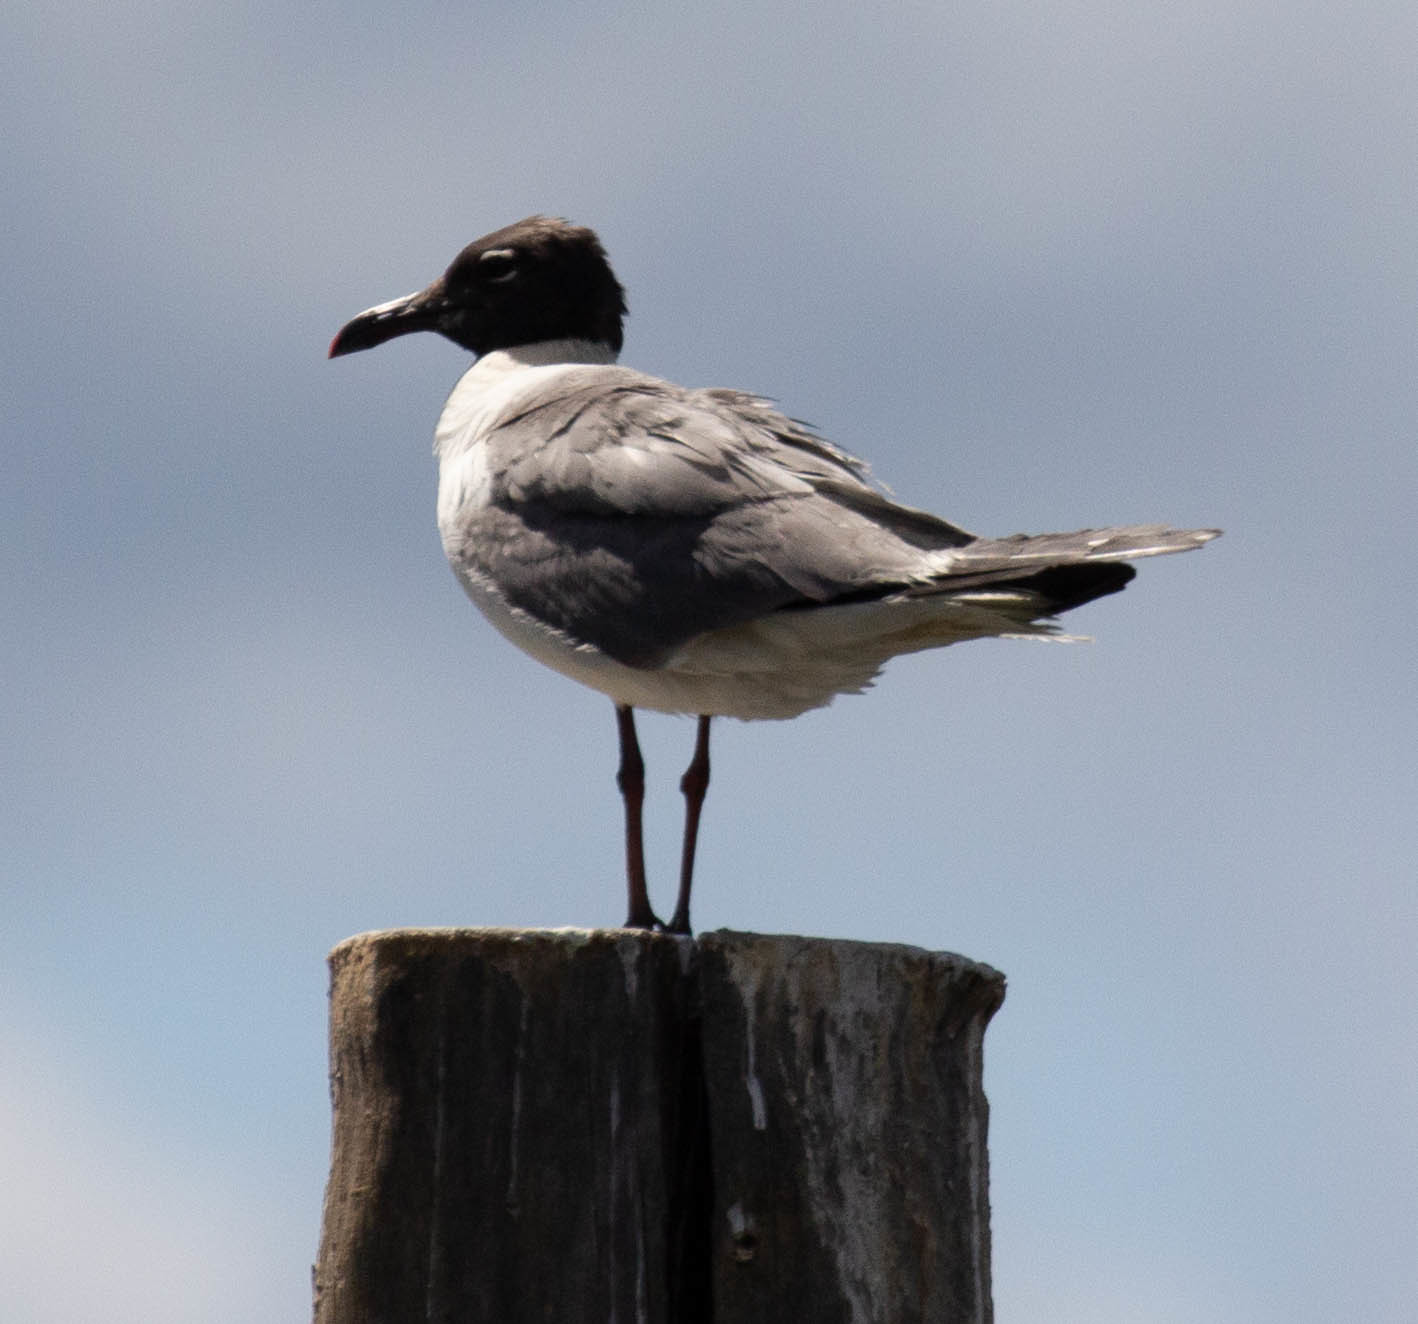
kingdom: Animalia
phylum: Chordata
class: Aves
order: Charadriiformes
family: Laridae
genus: Leucophaeus
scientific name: Leucophaeus atricilla
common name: Laughing gull
